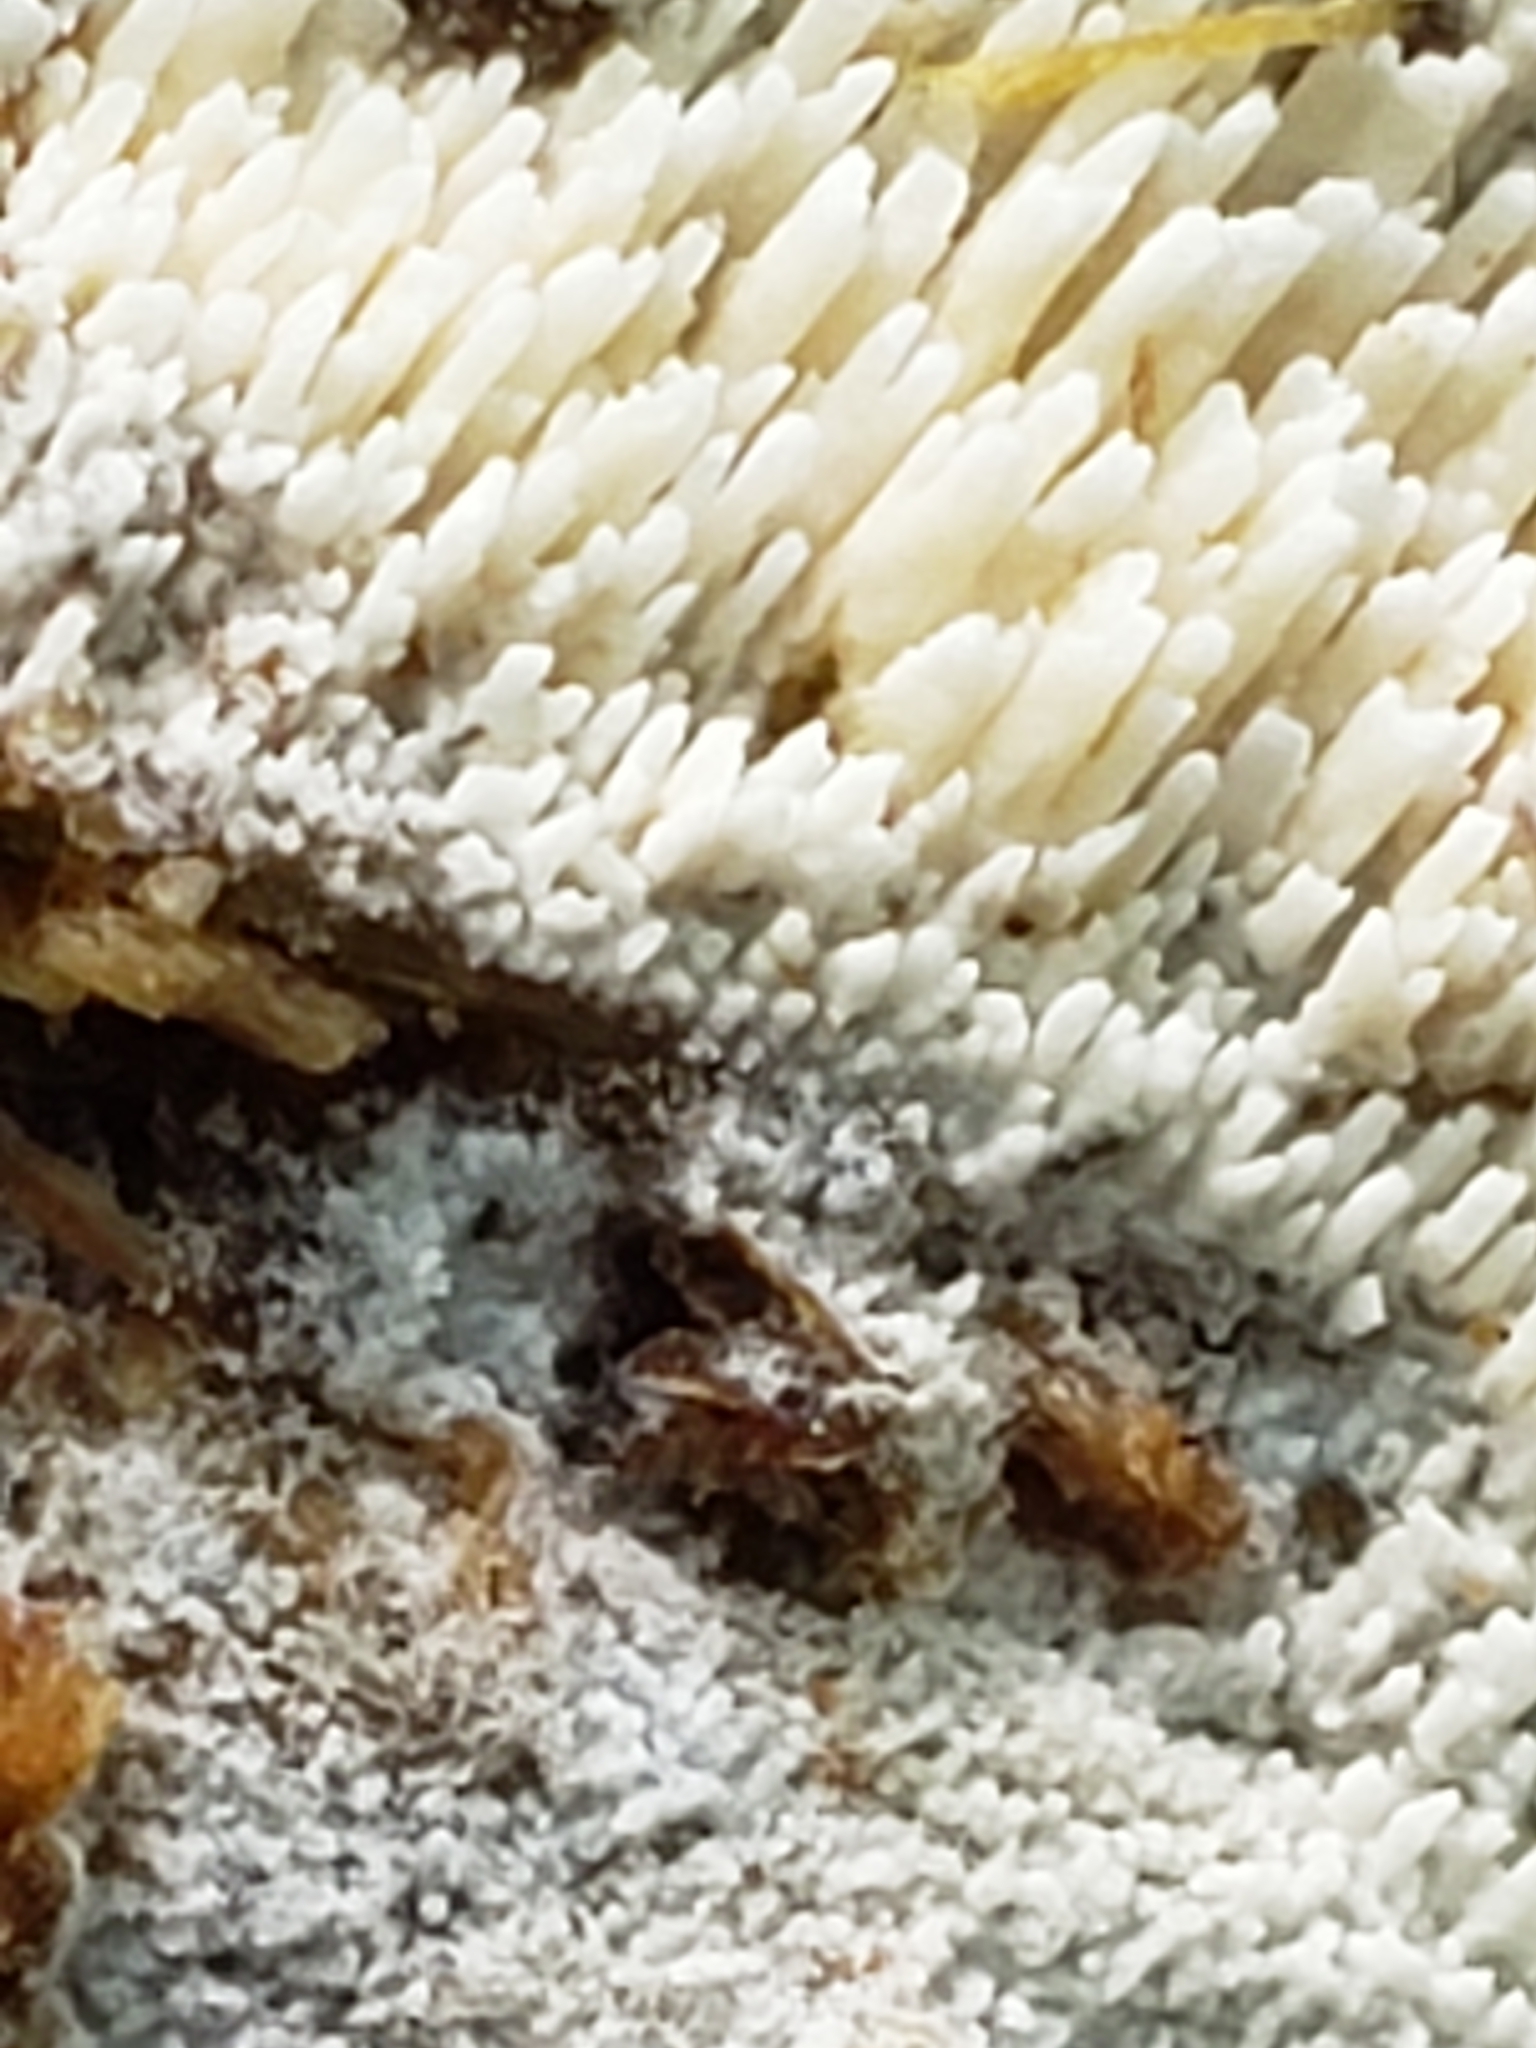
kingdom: Fungi
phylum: Basidiomycota
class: Agaricomycetes
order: Agaricales
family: Radulomycetaceae
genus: Radulomyces
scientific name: Radulomyces copelandii
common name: Asian beauty
